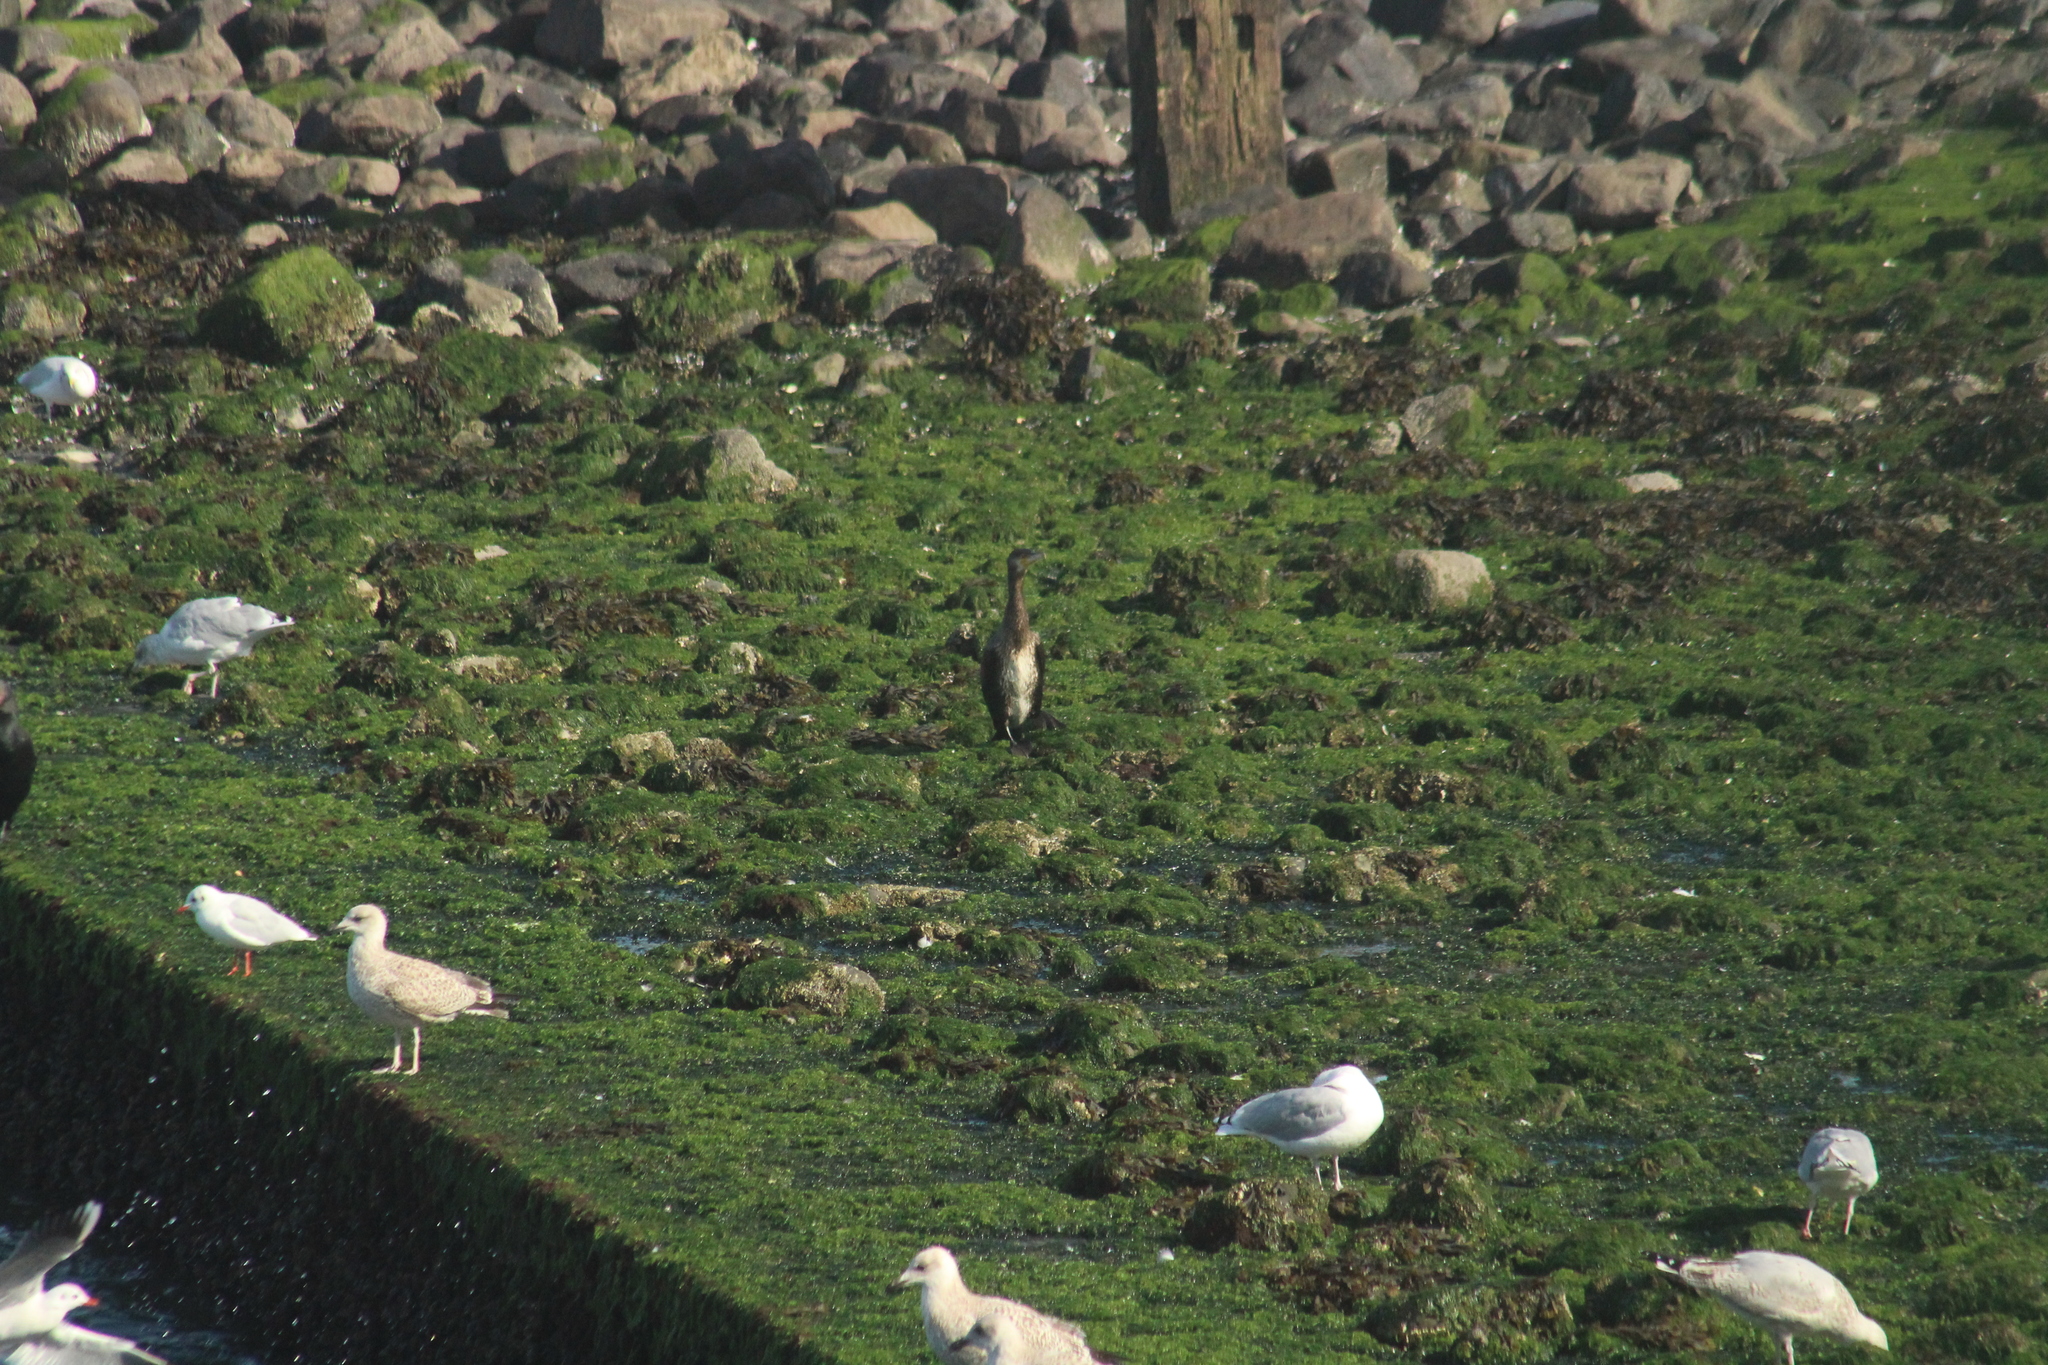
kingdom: Animalia
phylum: Chordata
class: Aves
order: Suliformes
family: Phalacrocoracidae
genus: Phalacrocorax
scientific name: Phalacrocorax carbo
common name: Great cormorant
